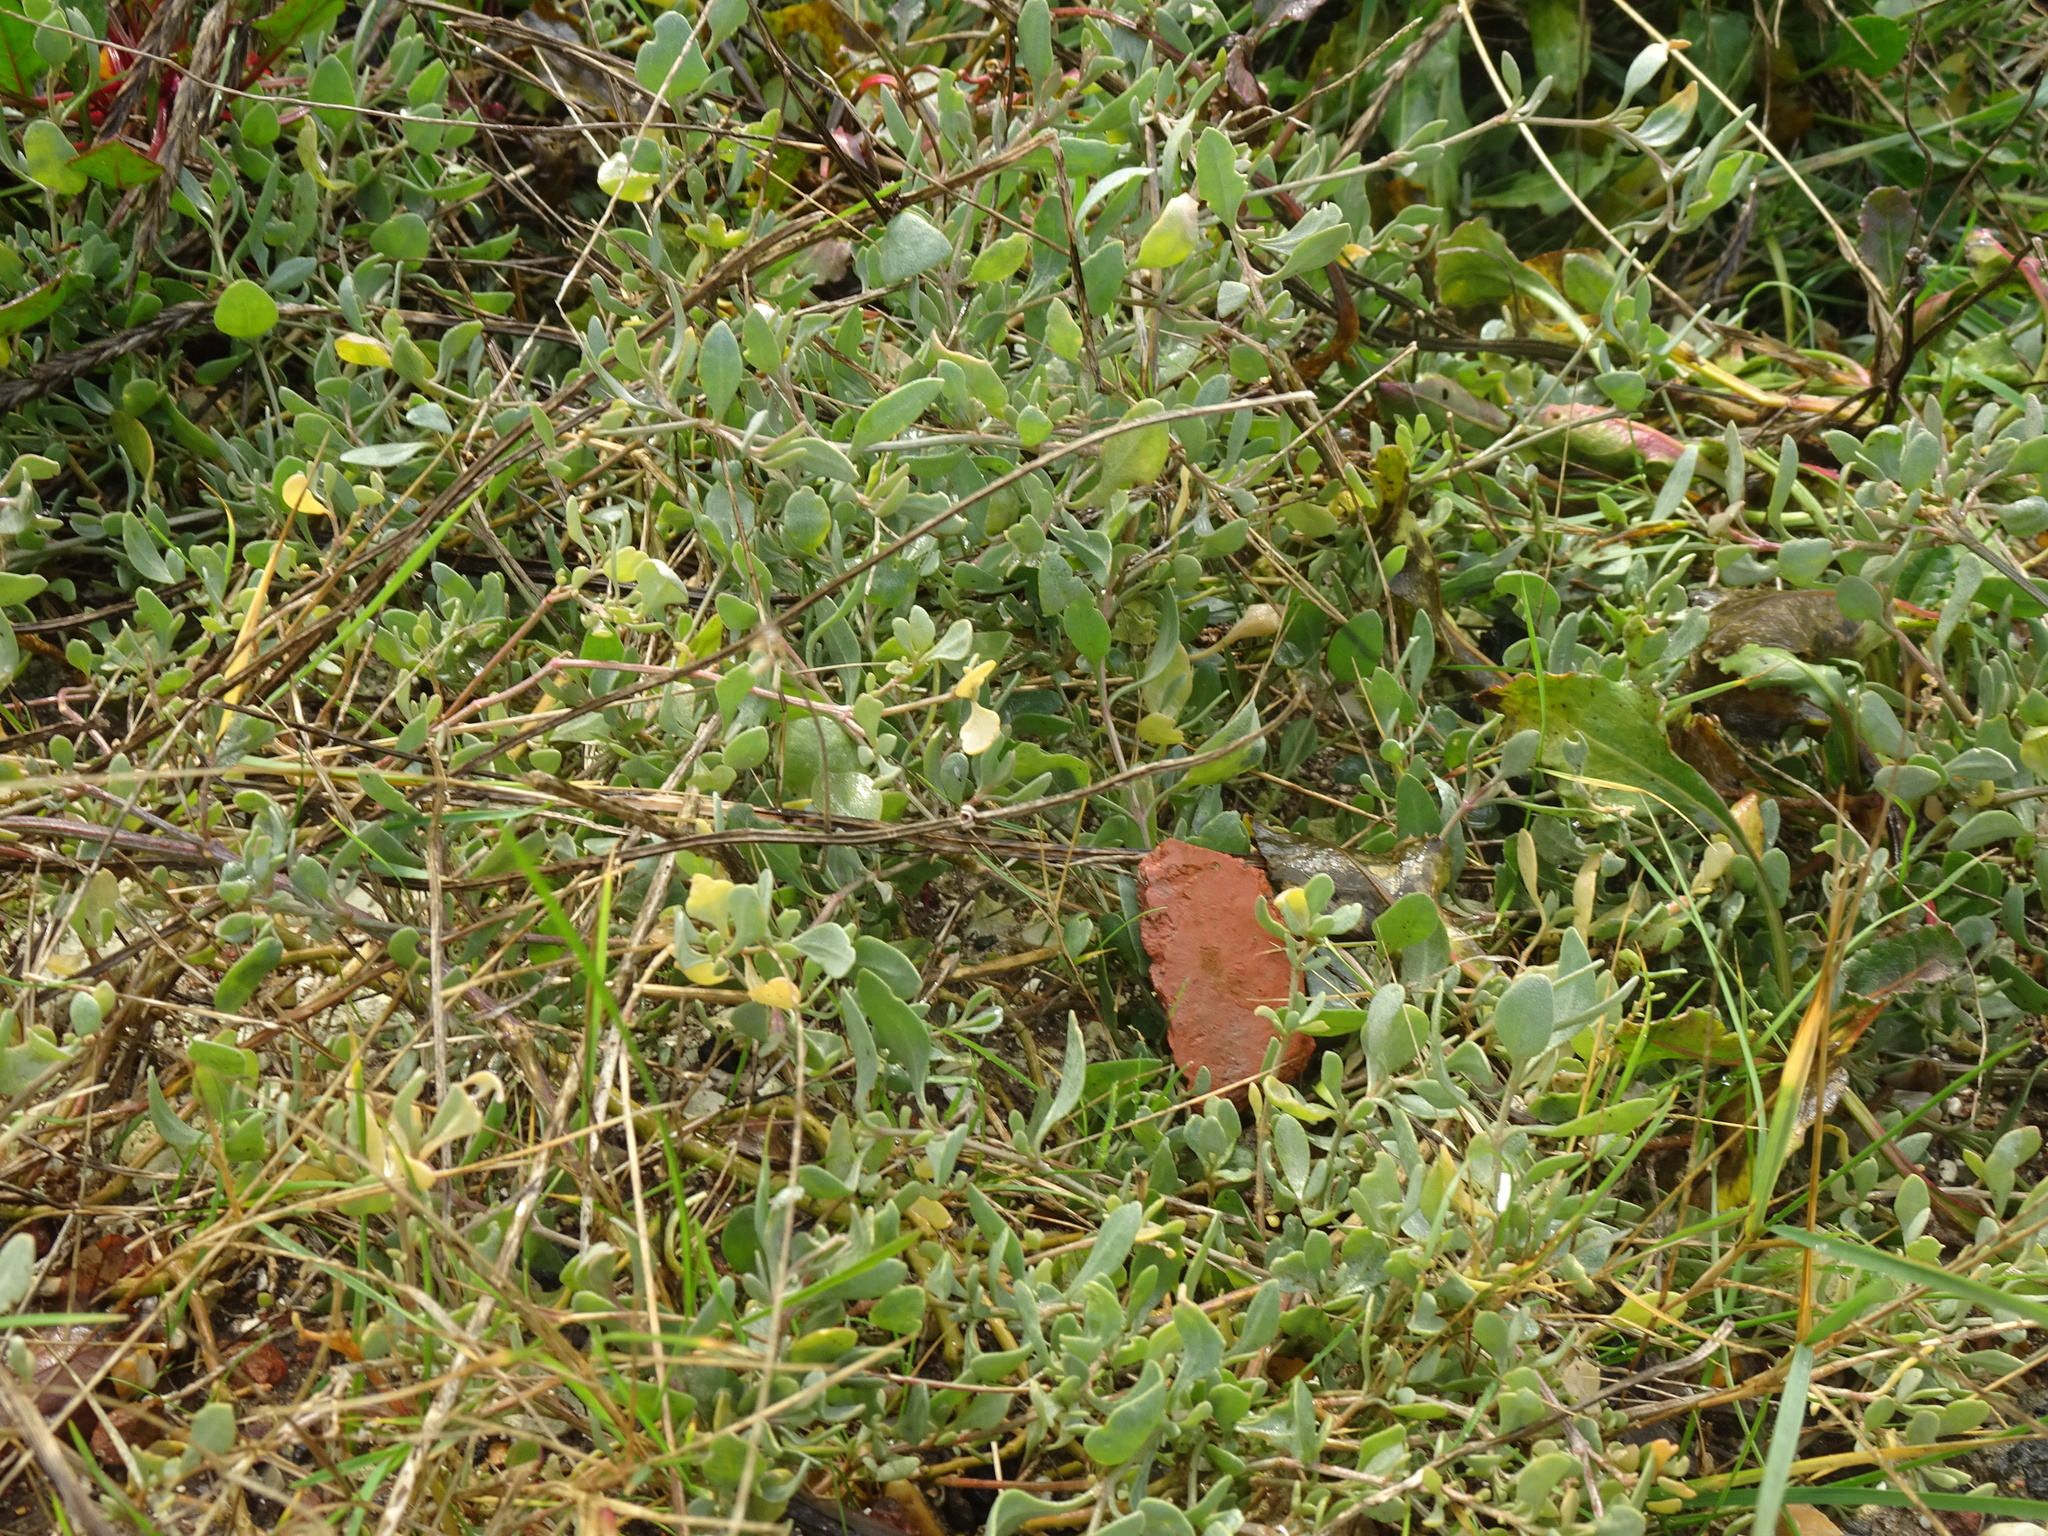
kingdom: Plantae
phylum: Tracheophyta
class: Magnoliopsida
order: Caryophyllales
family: Amaranthaceae
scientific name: Amaranthaceae
